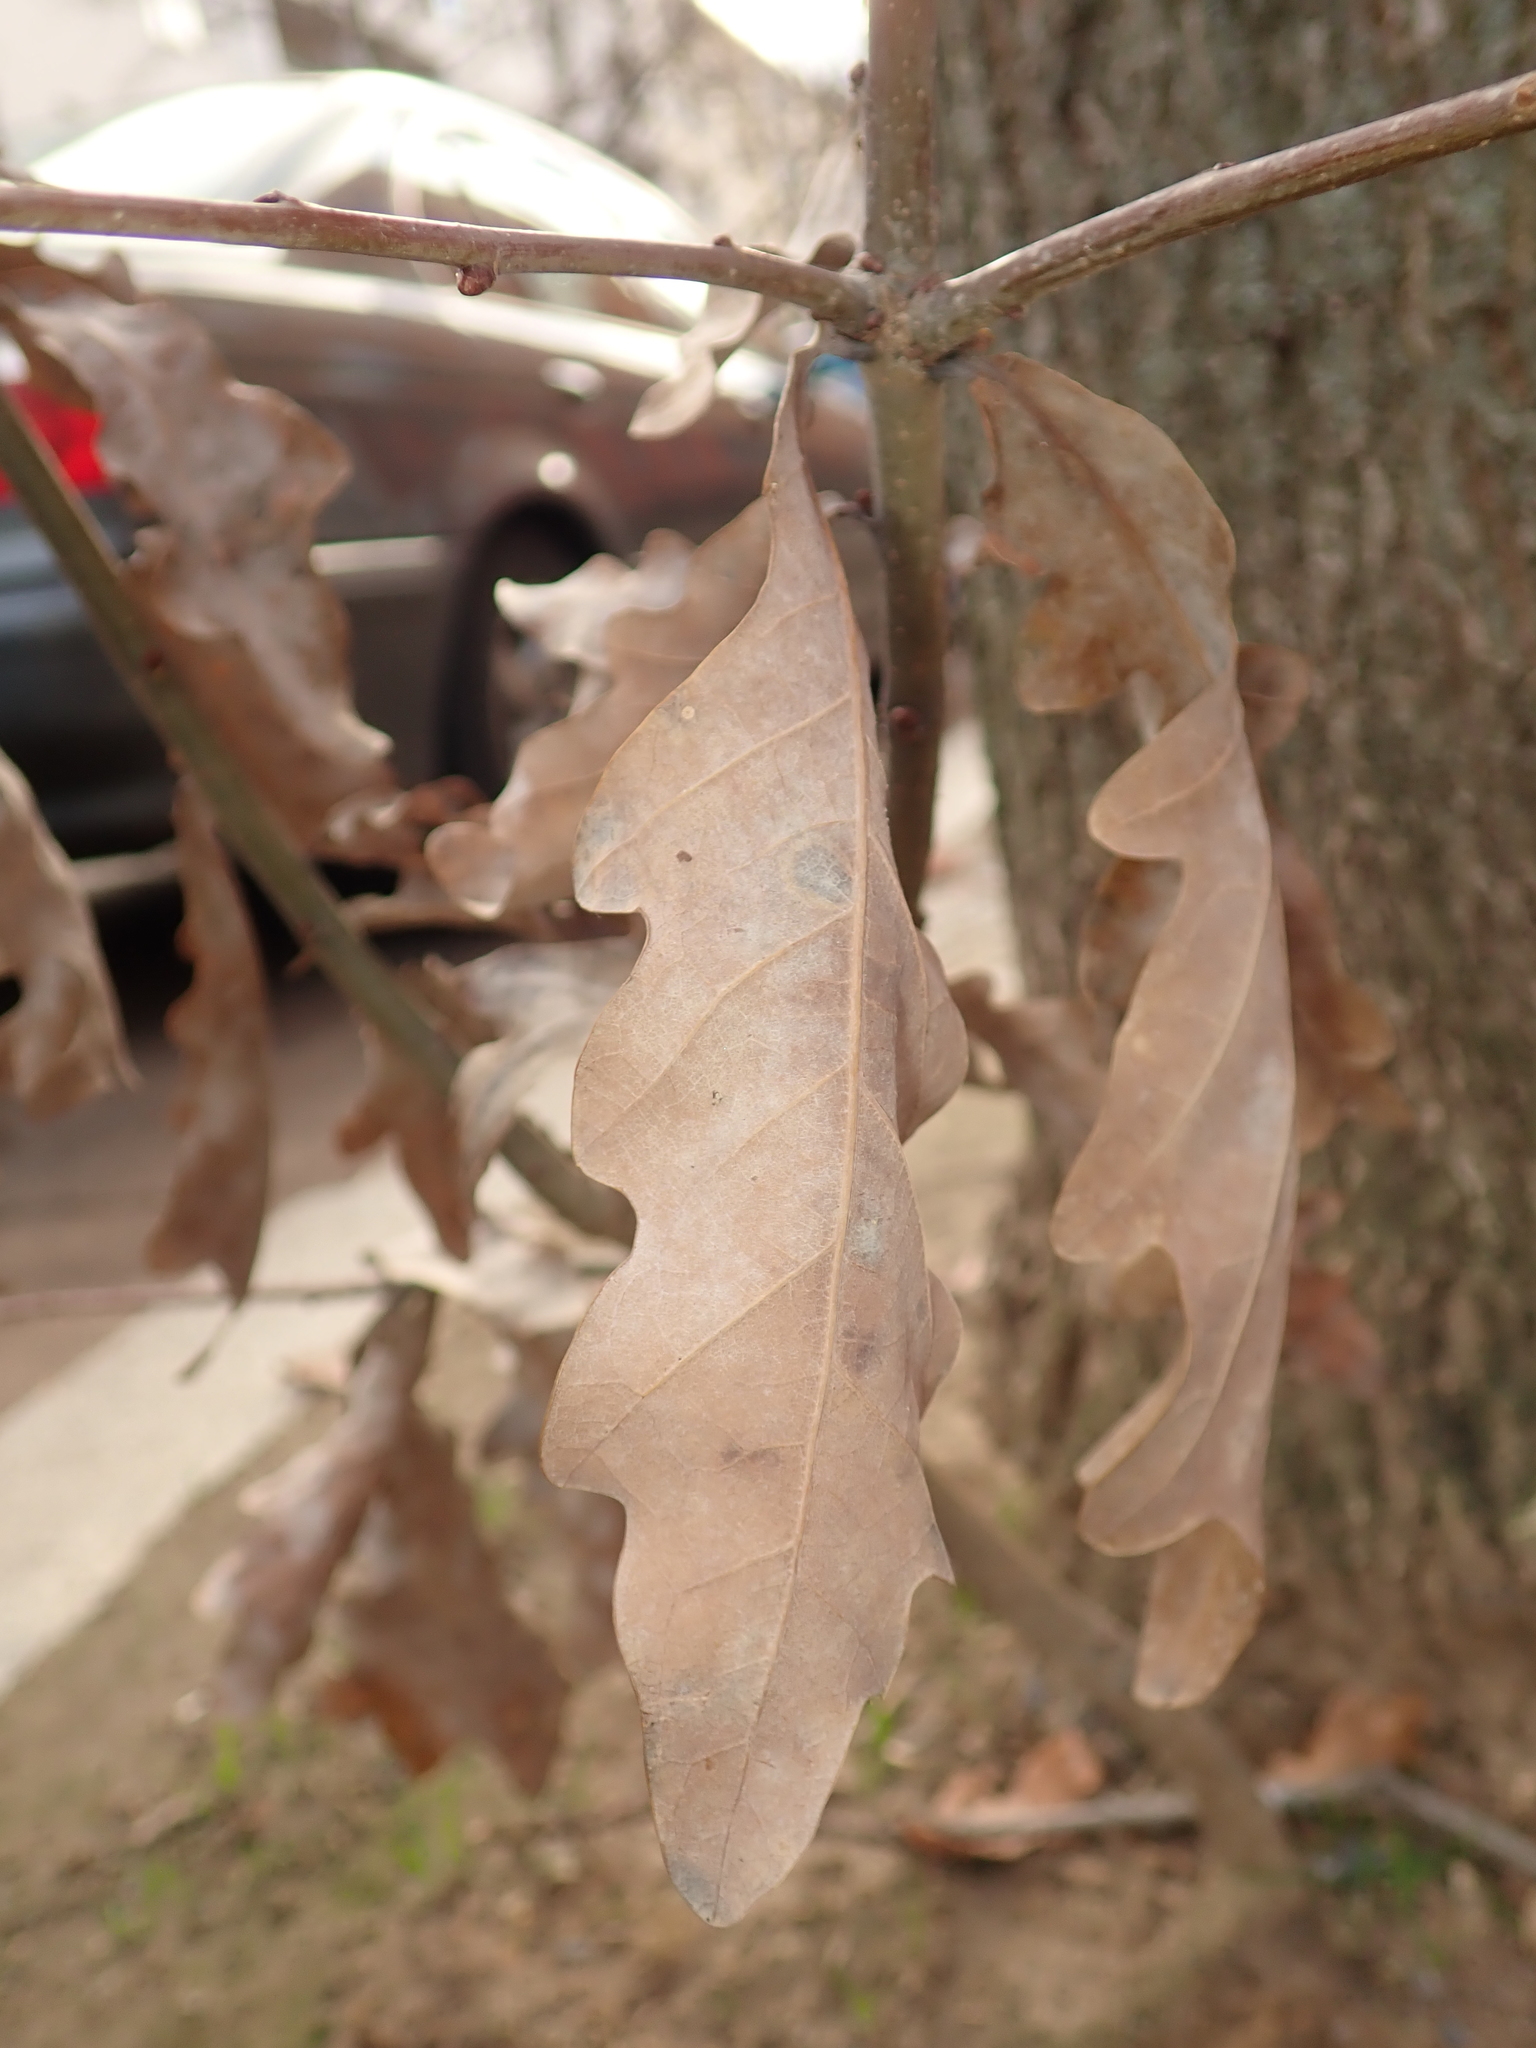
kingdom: Plantae
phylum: Tracheophyta
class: Magnoliopsida
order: Fagales
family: Fagaceae
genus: Quercus
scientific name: Quercus robur
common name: Pedunculate oak
